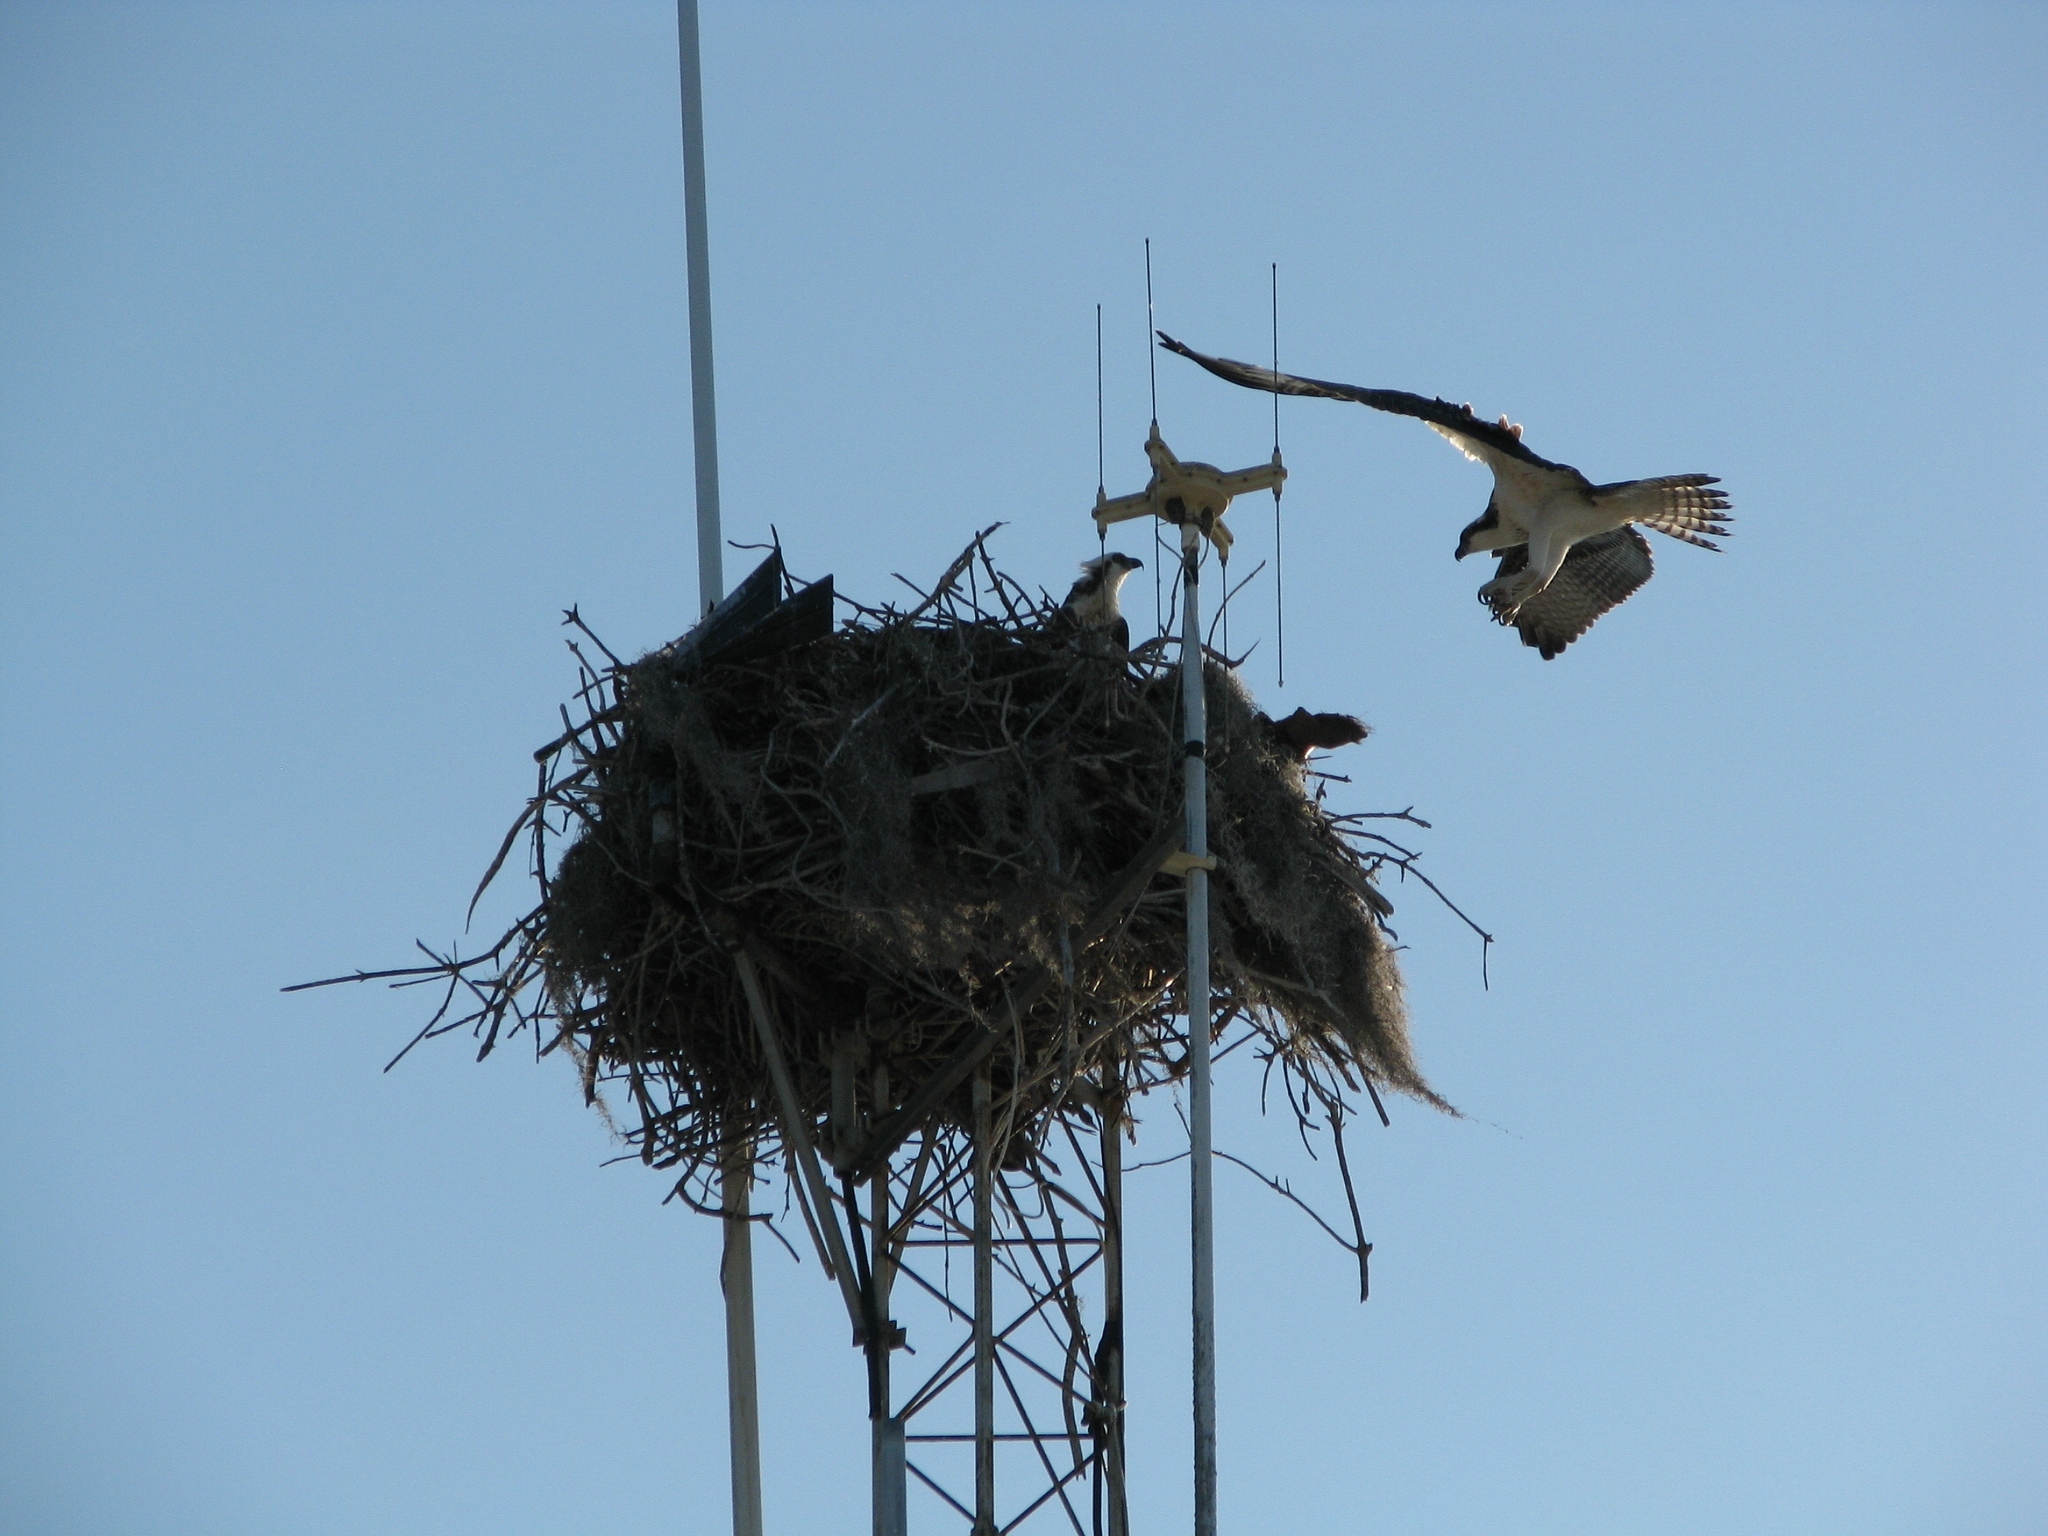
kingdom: Animalia
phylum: Chordata
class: Aves
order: Accipitriformes
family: Pandionidae
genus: Pandion
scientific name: Pandion haliaetus
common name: Osprey
